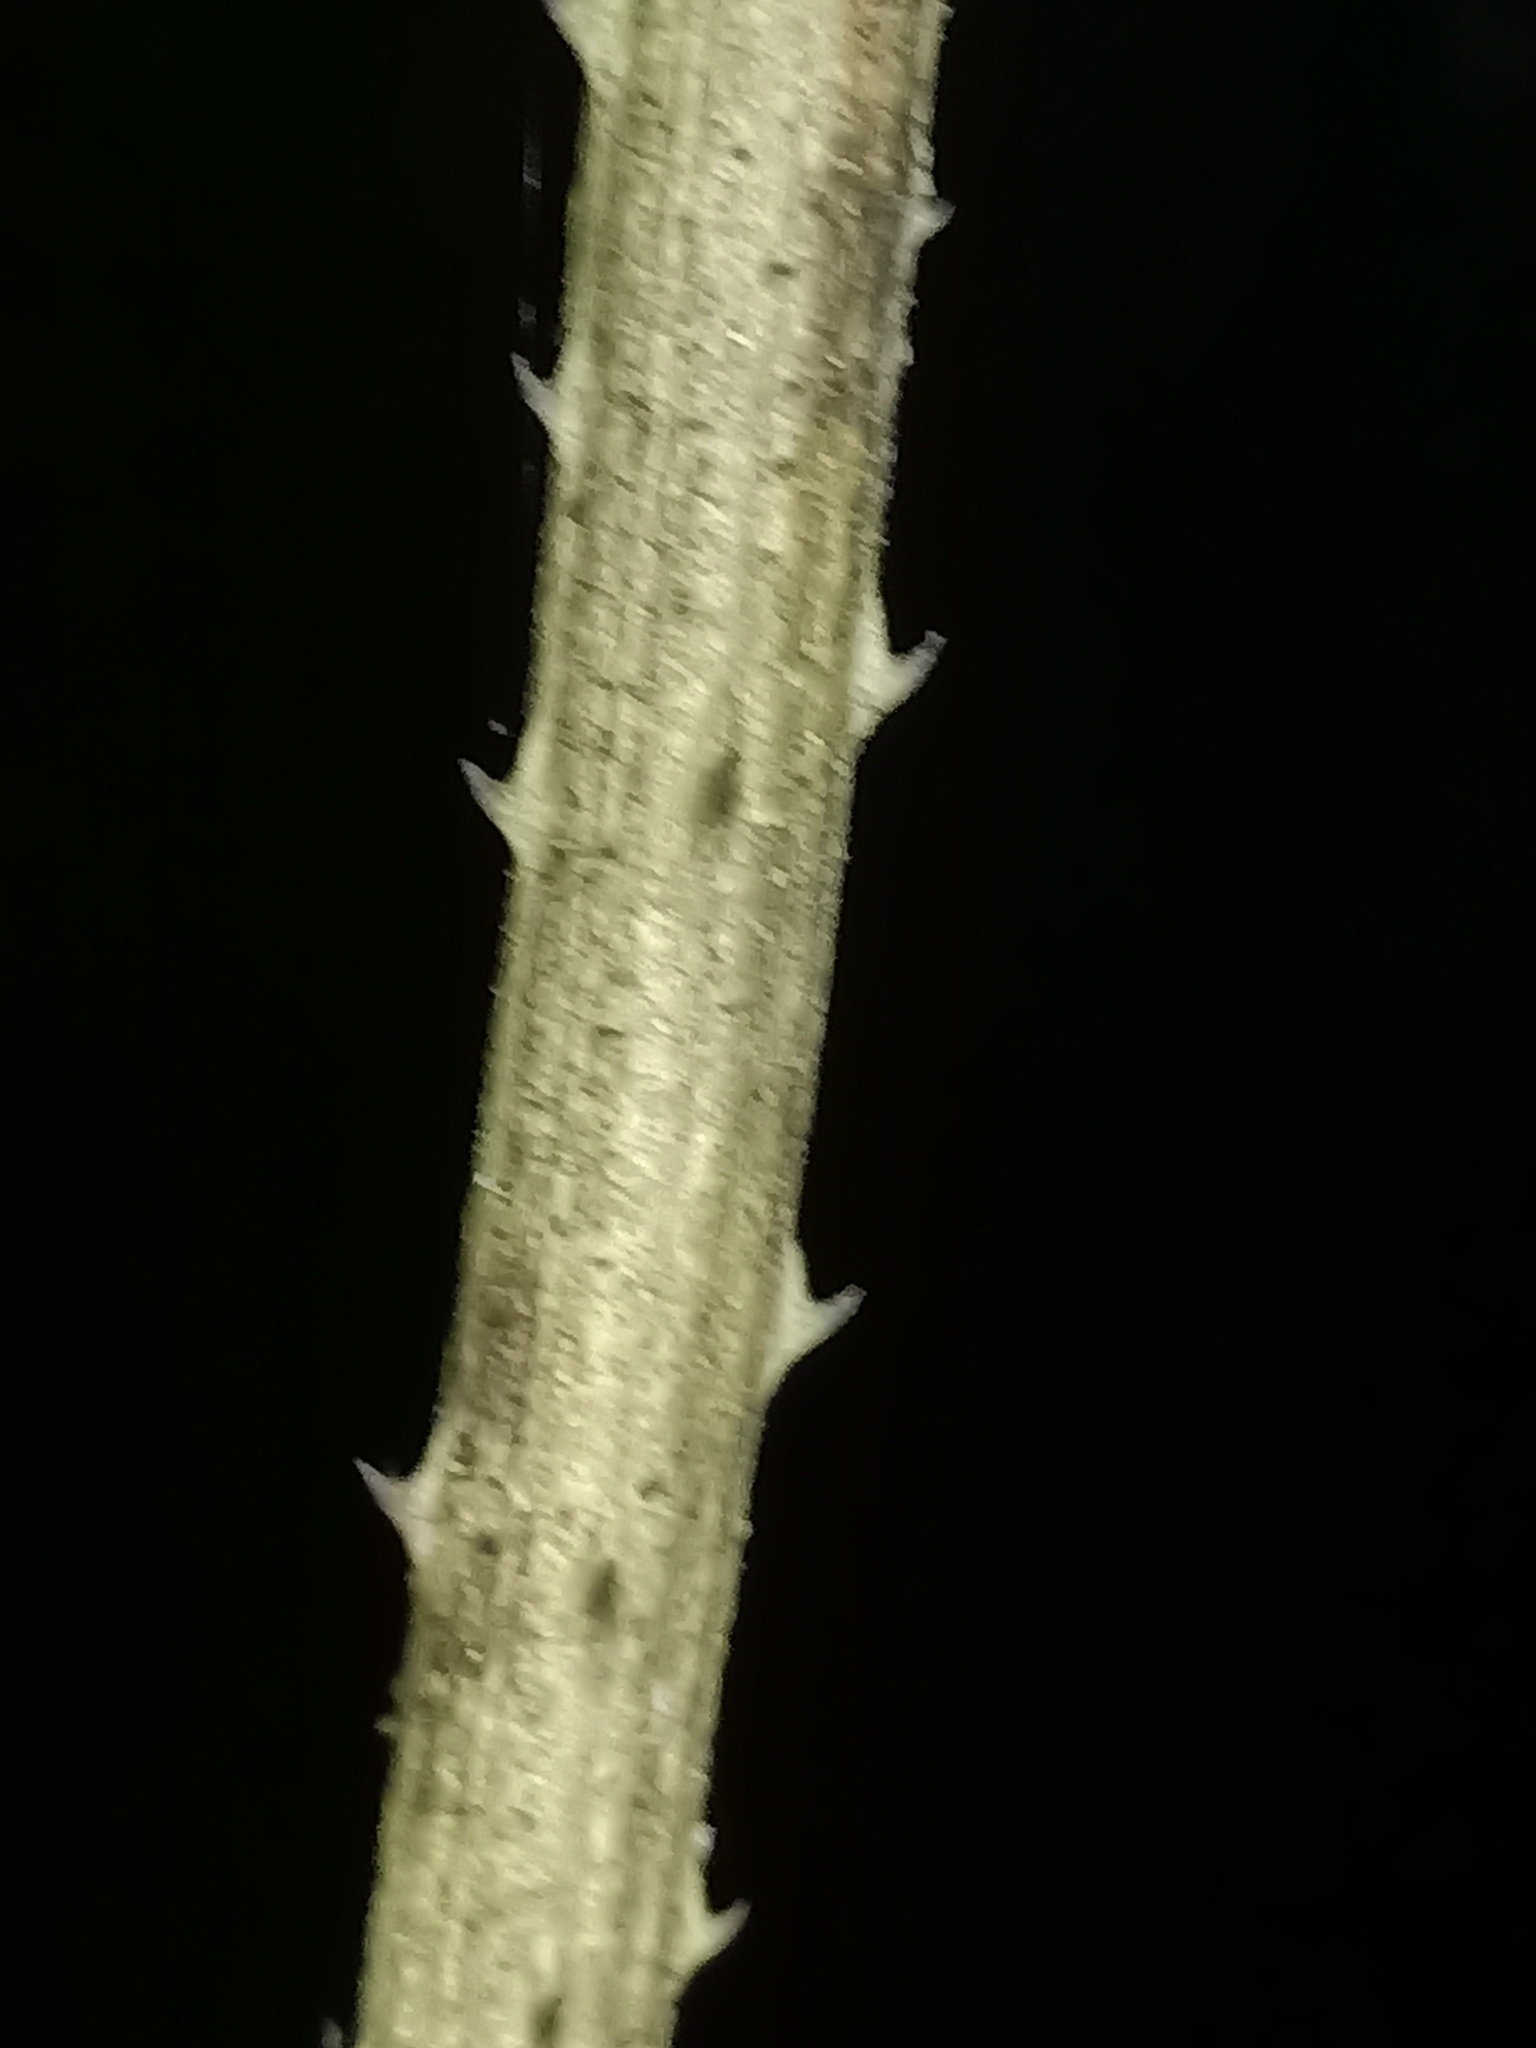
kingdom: Plantae
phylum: Tracheophyta
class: Magnoliopsida
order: Fabales
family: Fabaceae
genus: Senegalia
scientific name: Senegalia
